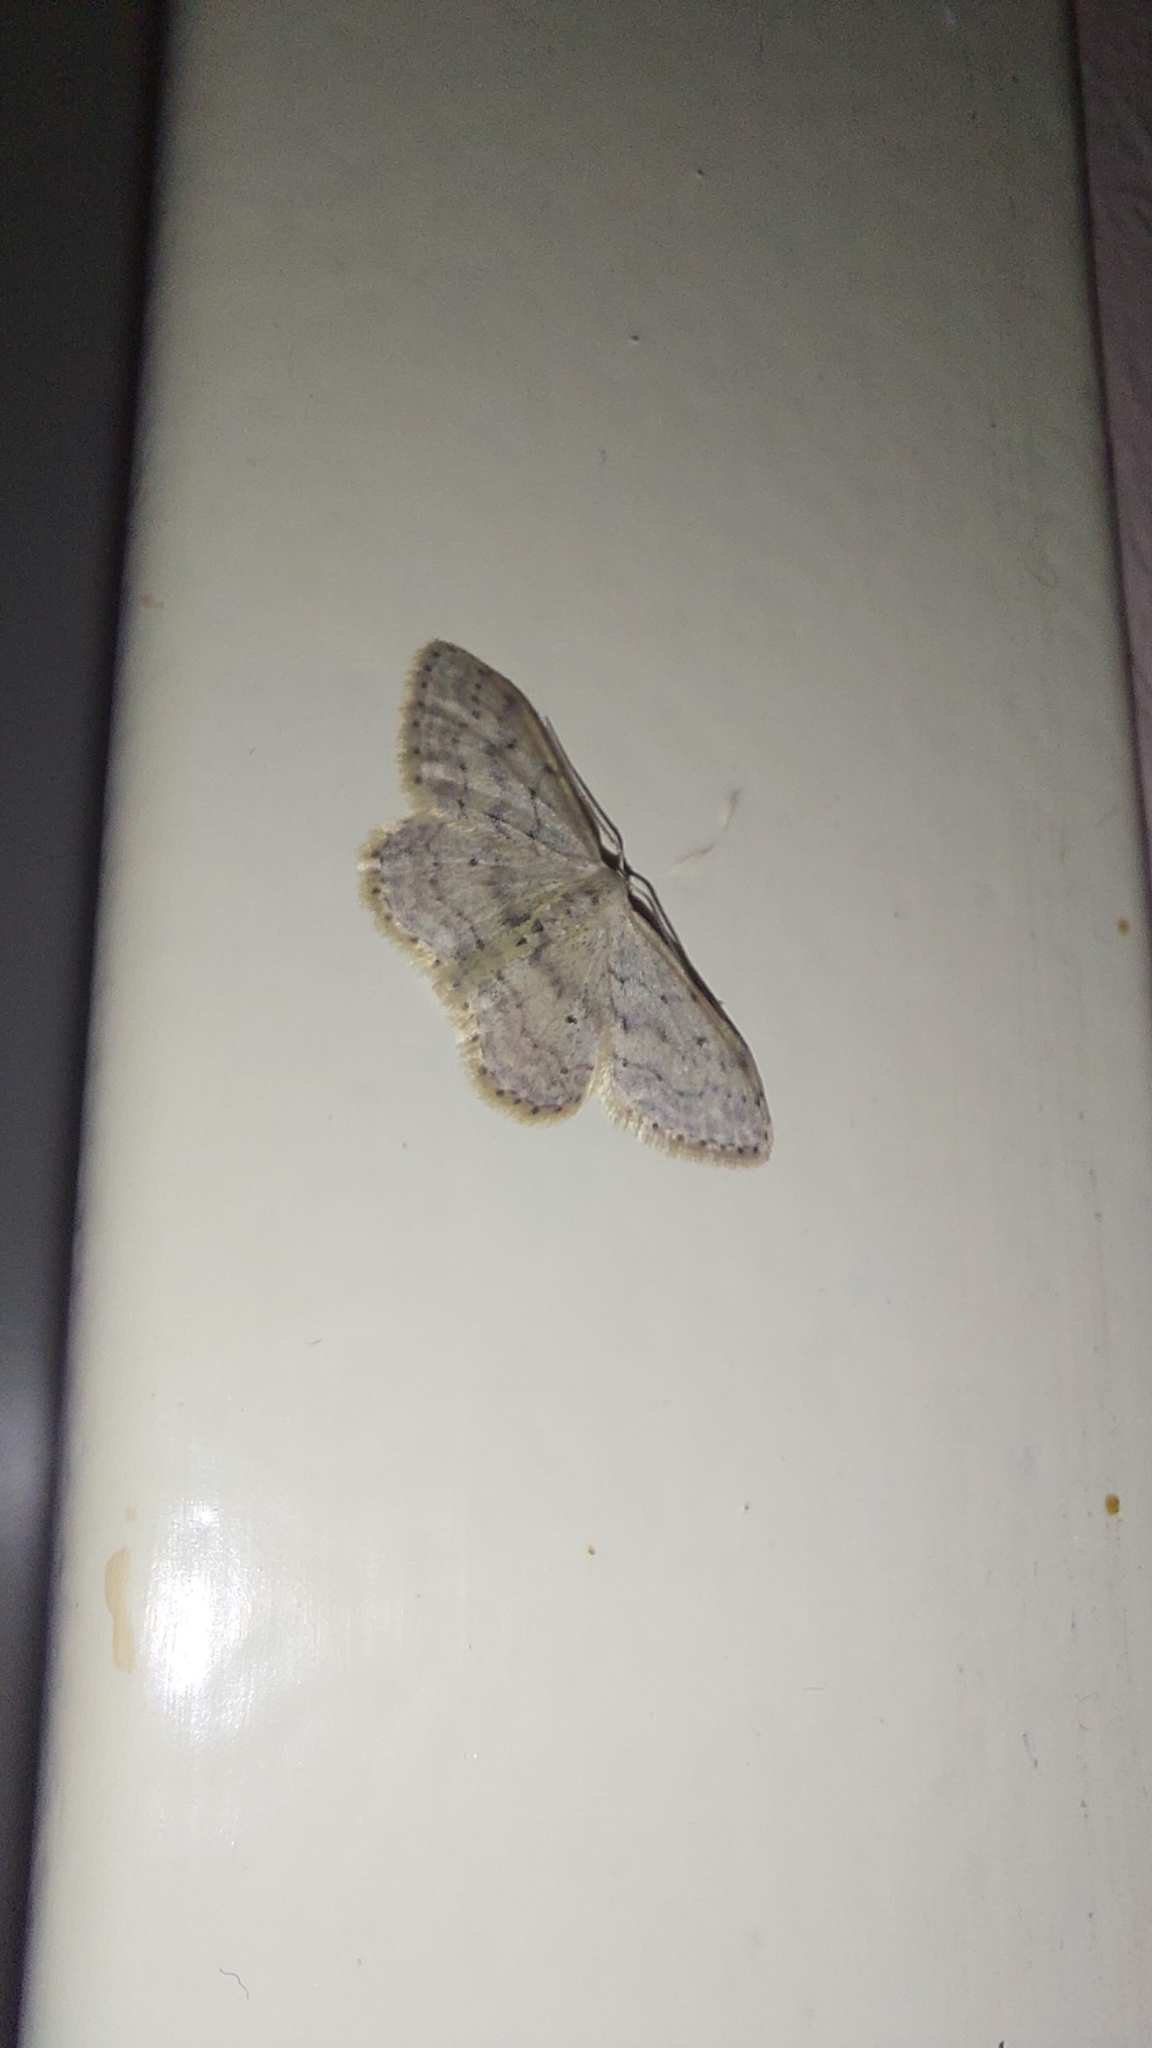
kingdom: Animalia
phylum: Arthropoda
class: Insecta
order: Lepidoptera
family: Geometridae
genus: Idaea
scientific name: Idaea seriata
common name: Small dusty wave
